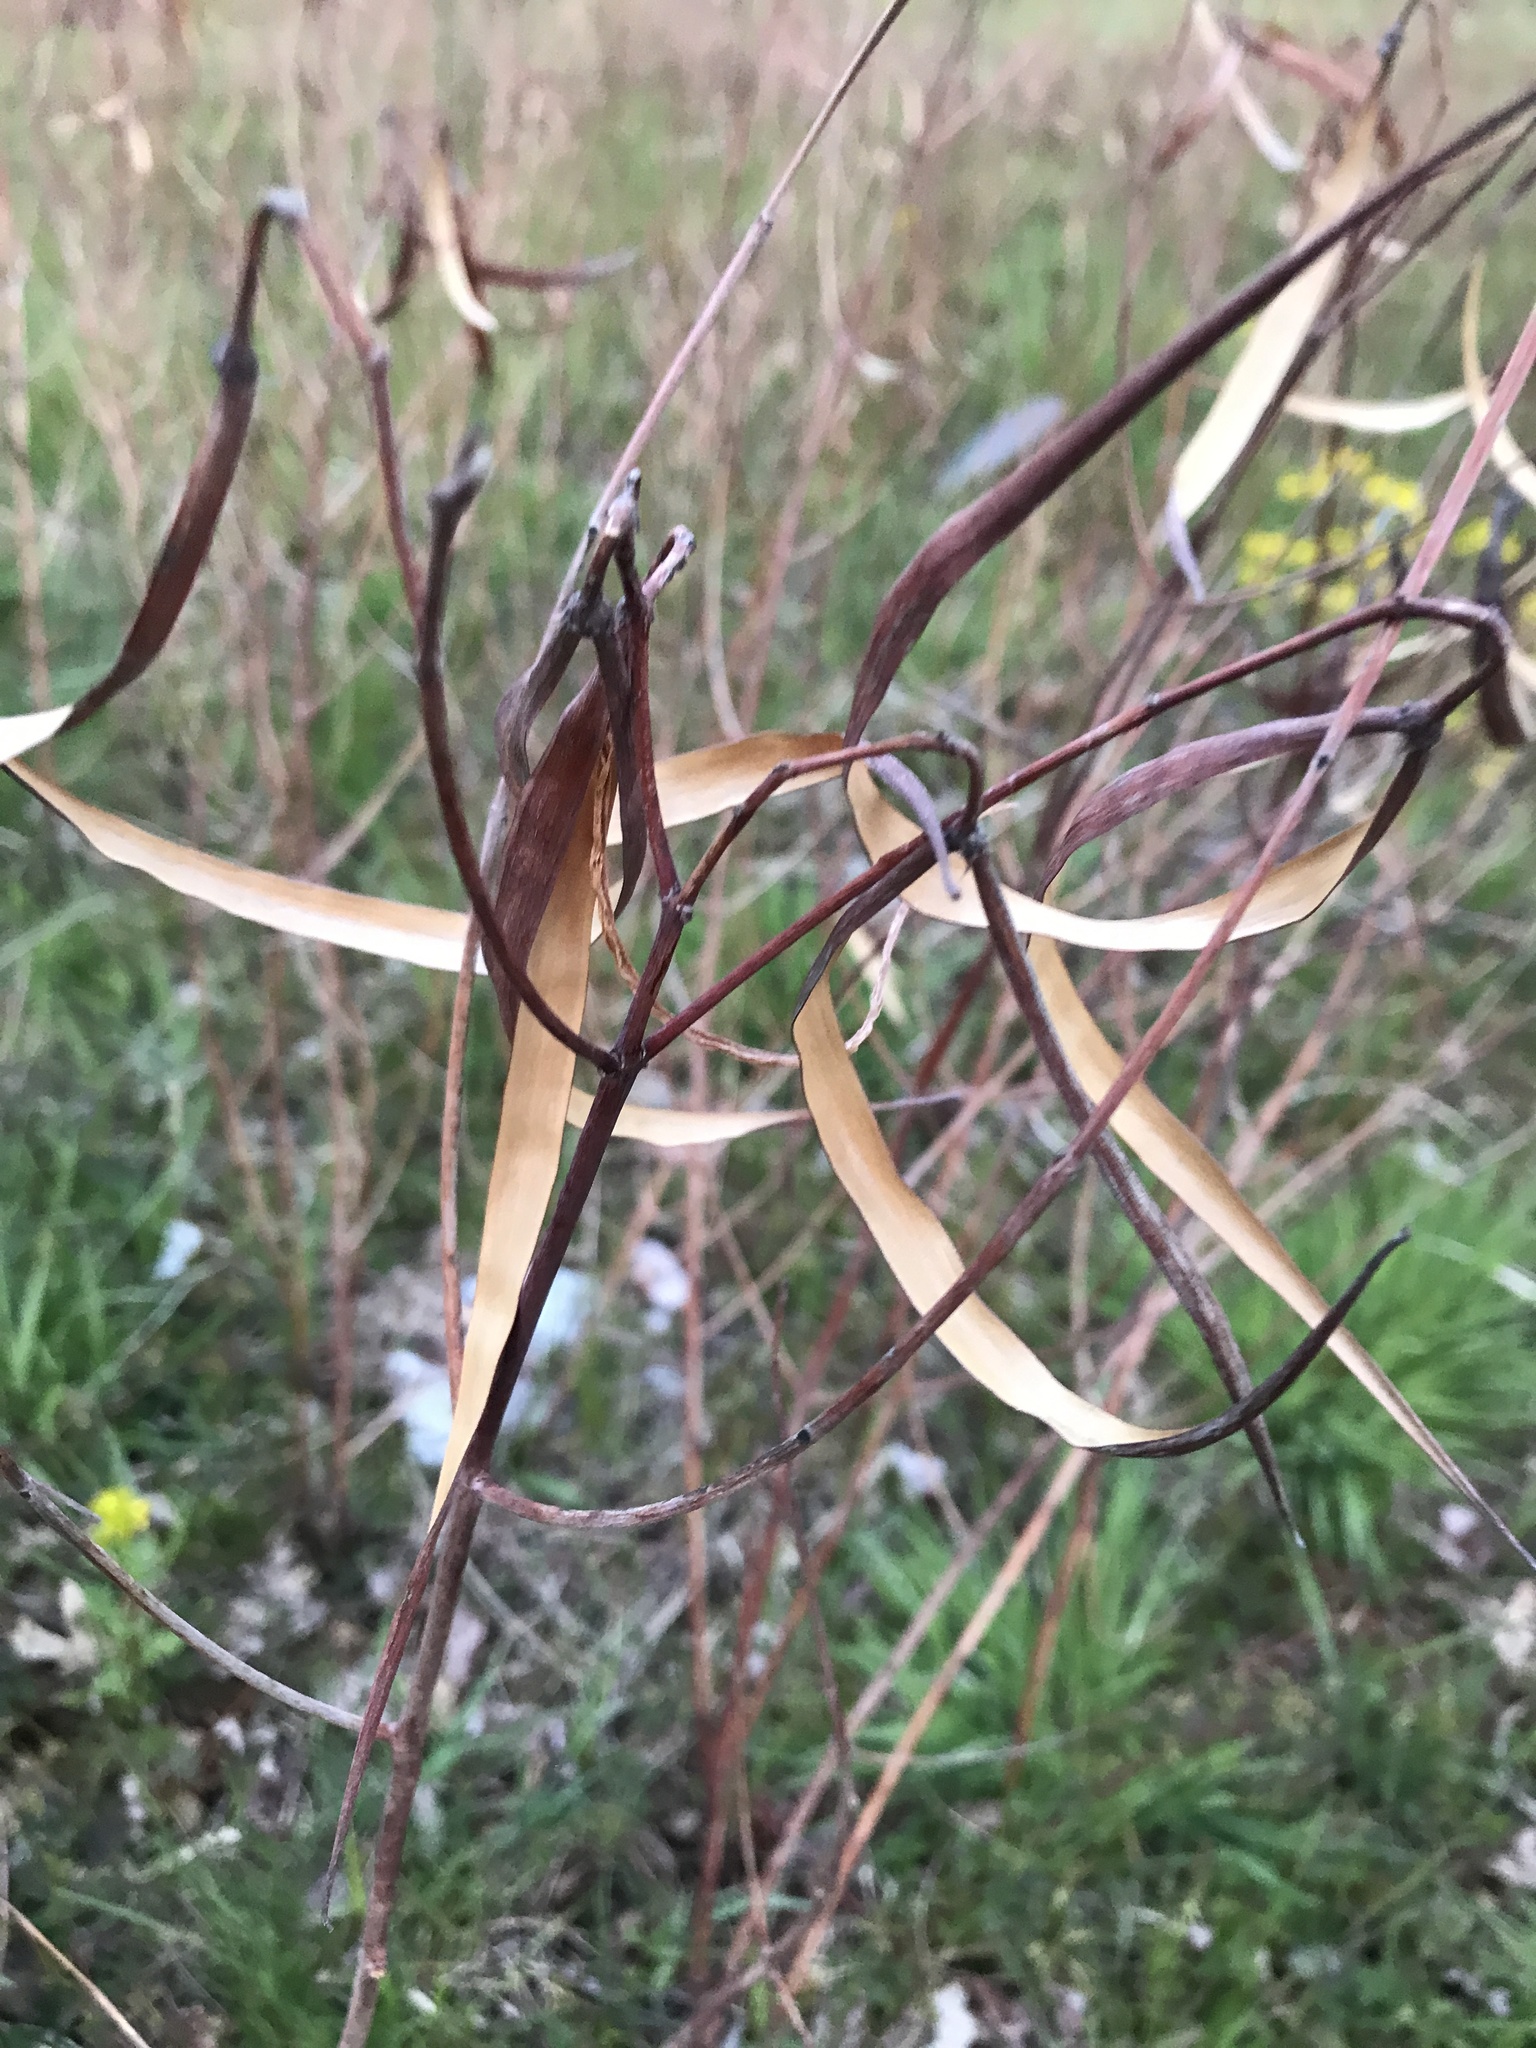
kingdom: Plantae
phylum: Tracheophyta
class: Magnoliopsida
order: Gentianales
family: Apocynaceae
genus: Apocynum
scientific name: Apocynum cannabinum
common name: Hemp dogbane
